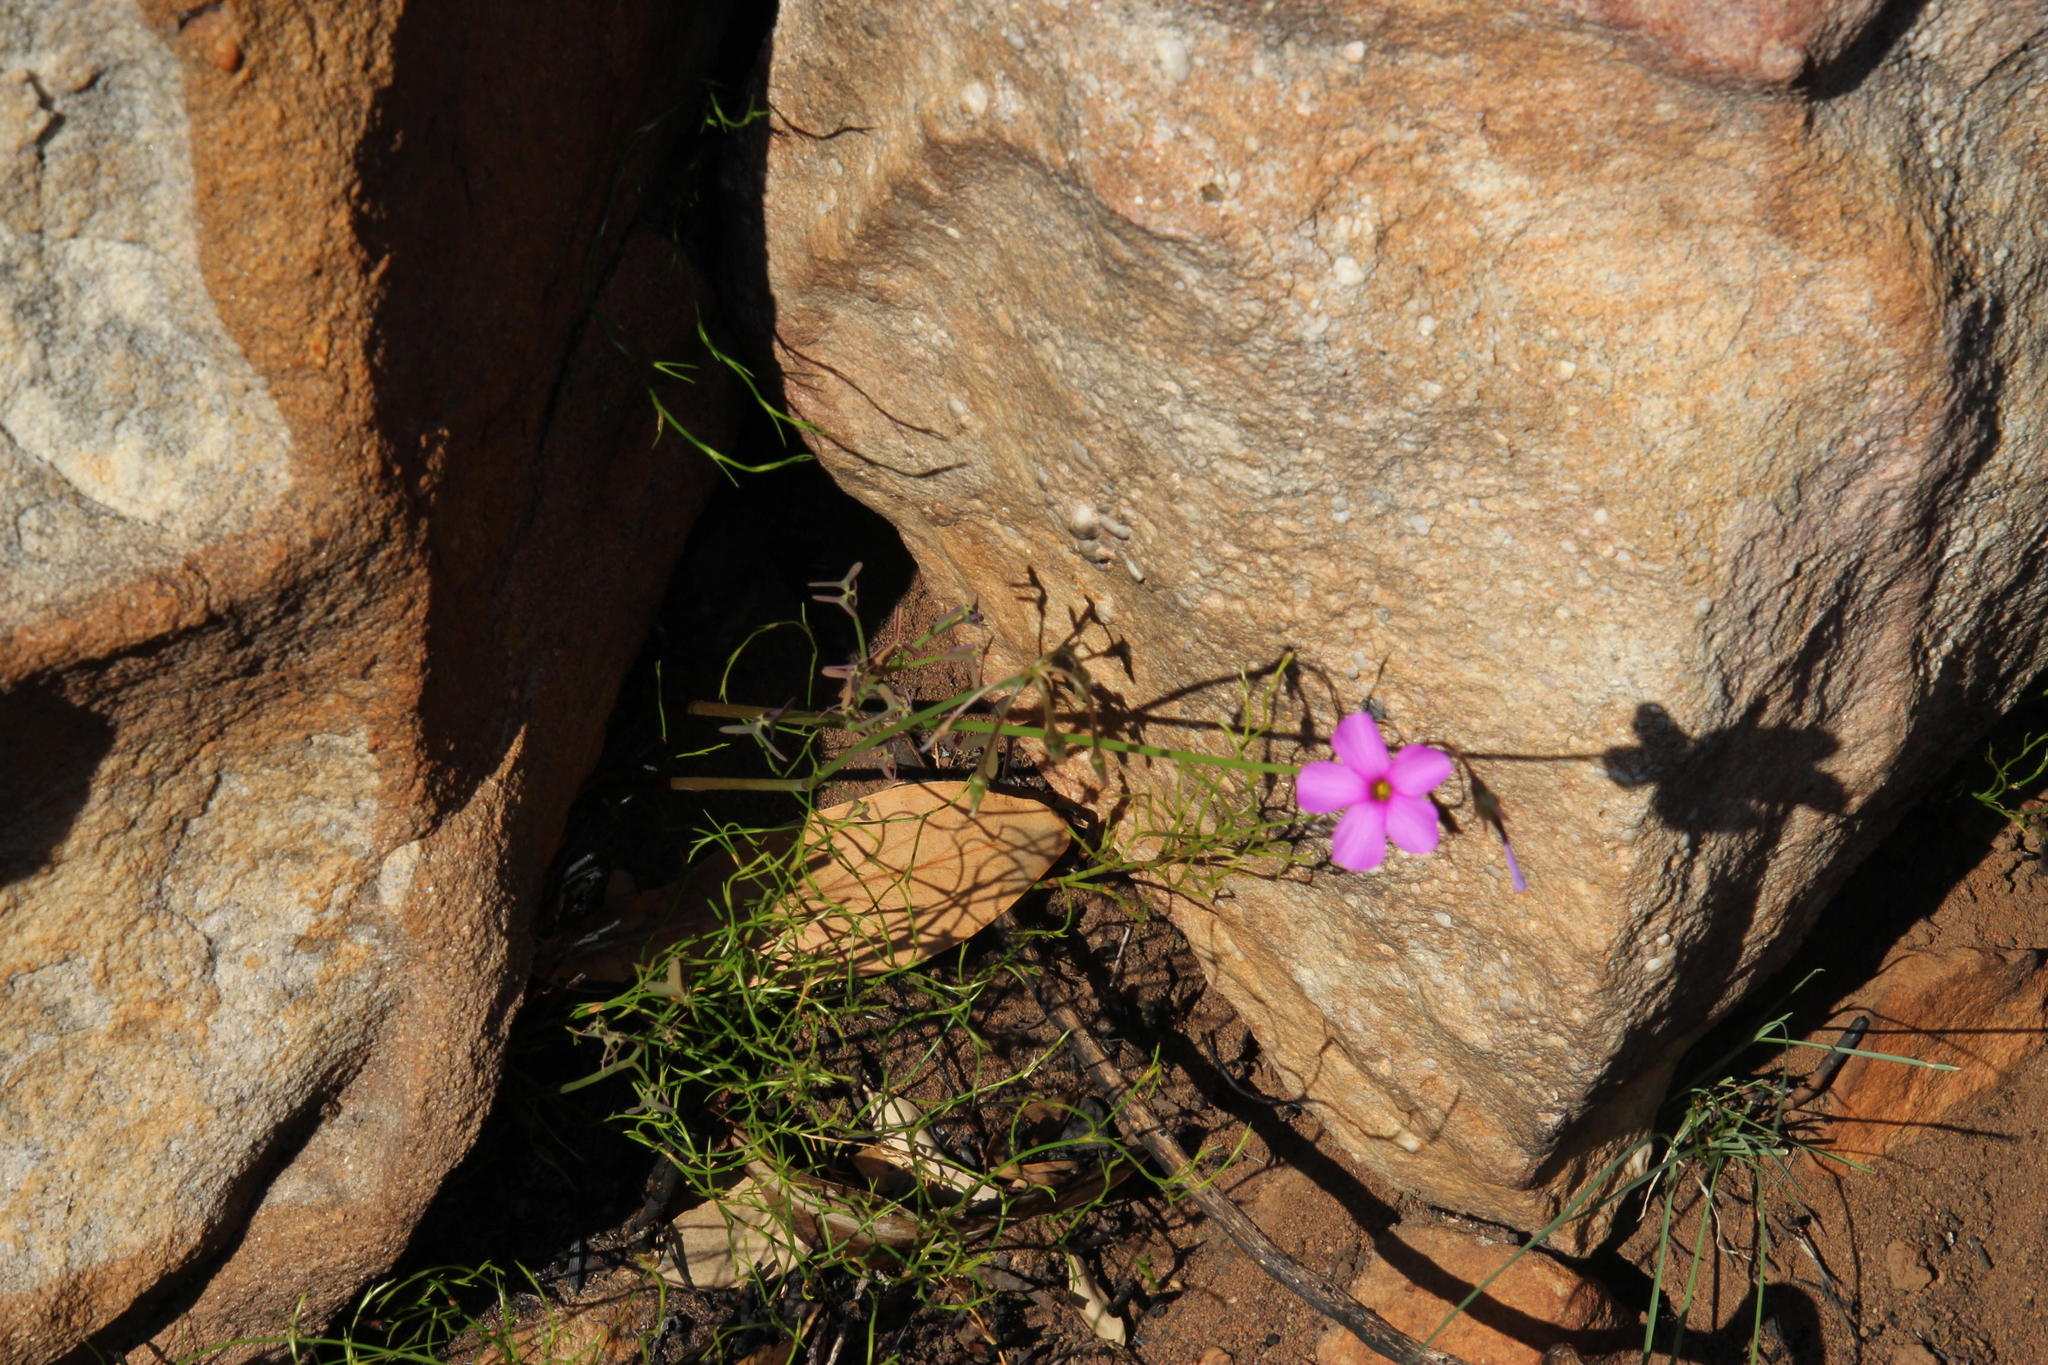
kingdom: Plantae
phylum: Tracheophyta
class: Magnoliopsida
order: Oxalidales
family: Oxalidaceae
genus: Oxalis
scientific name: Oxalis livida
